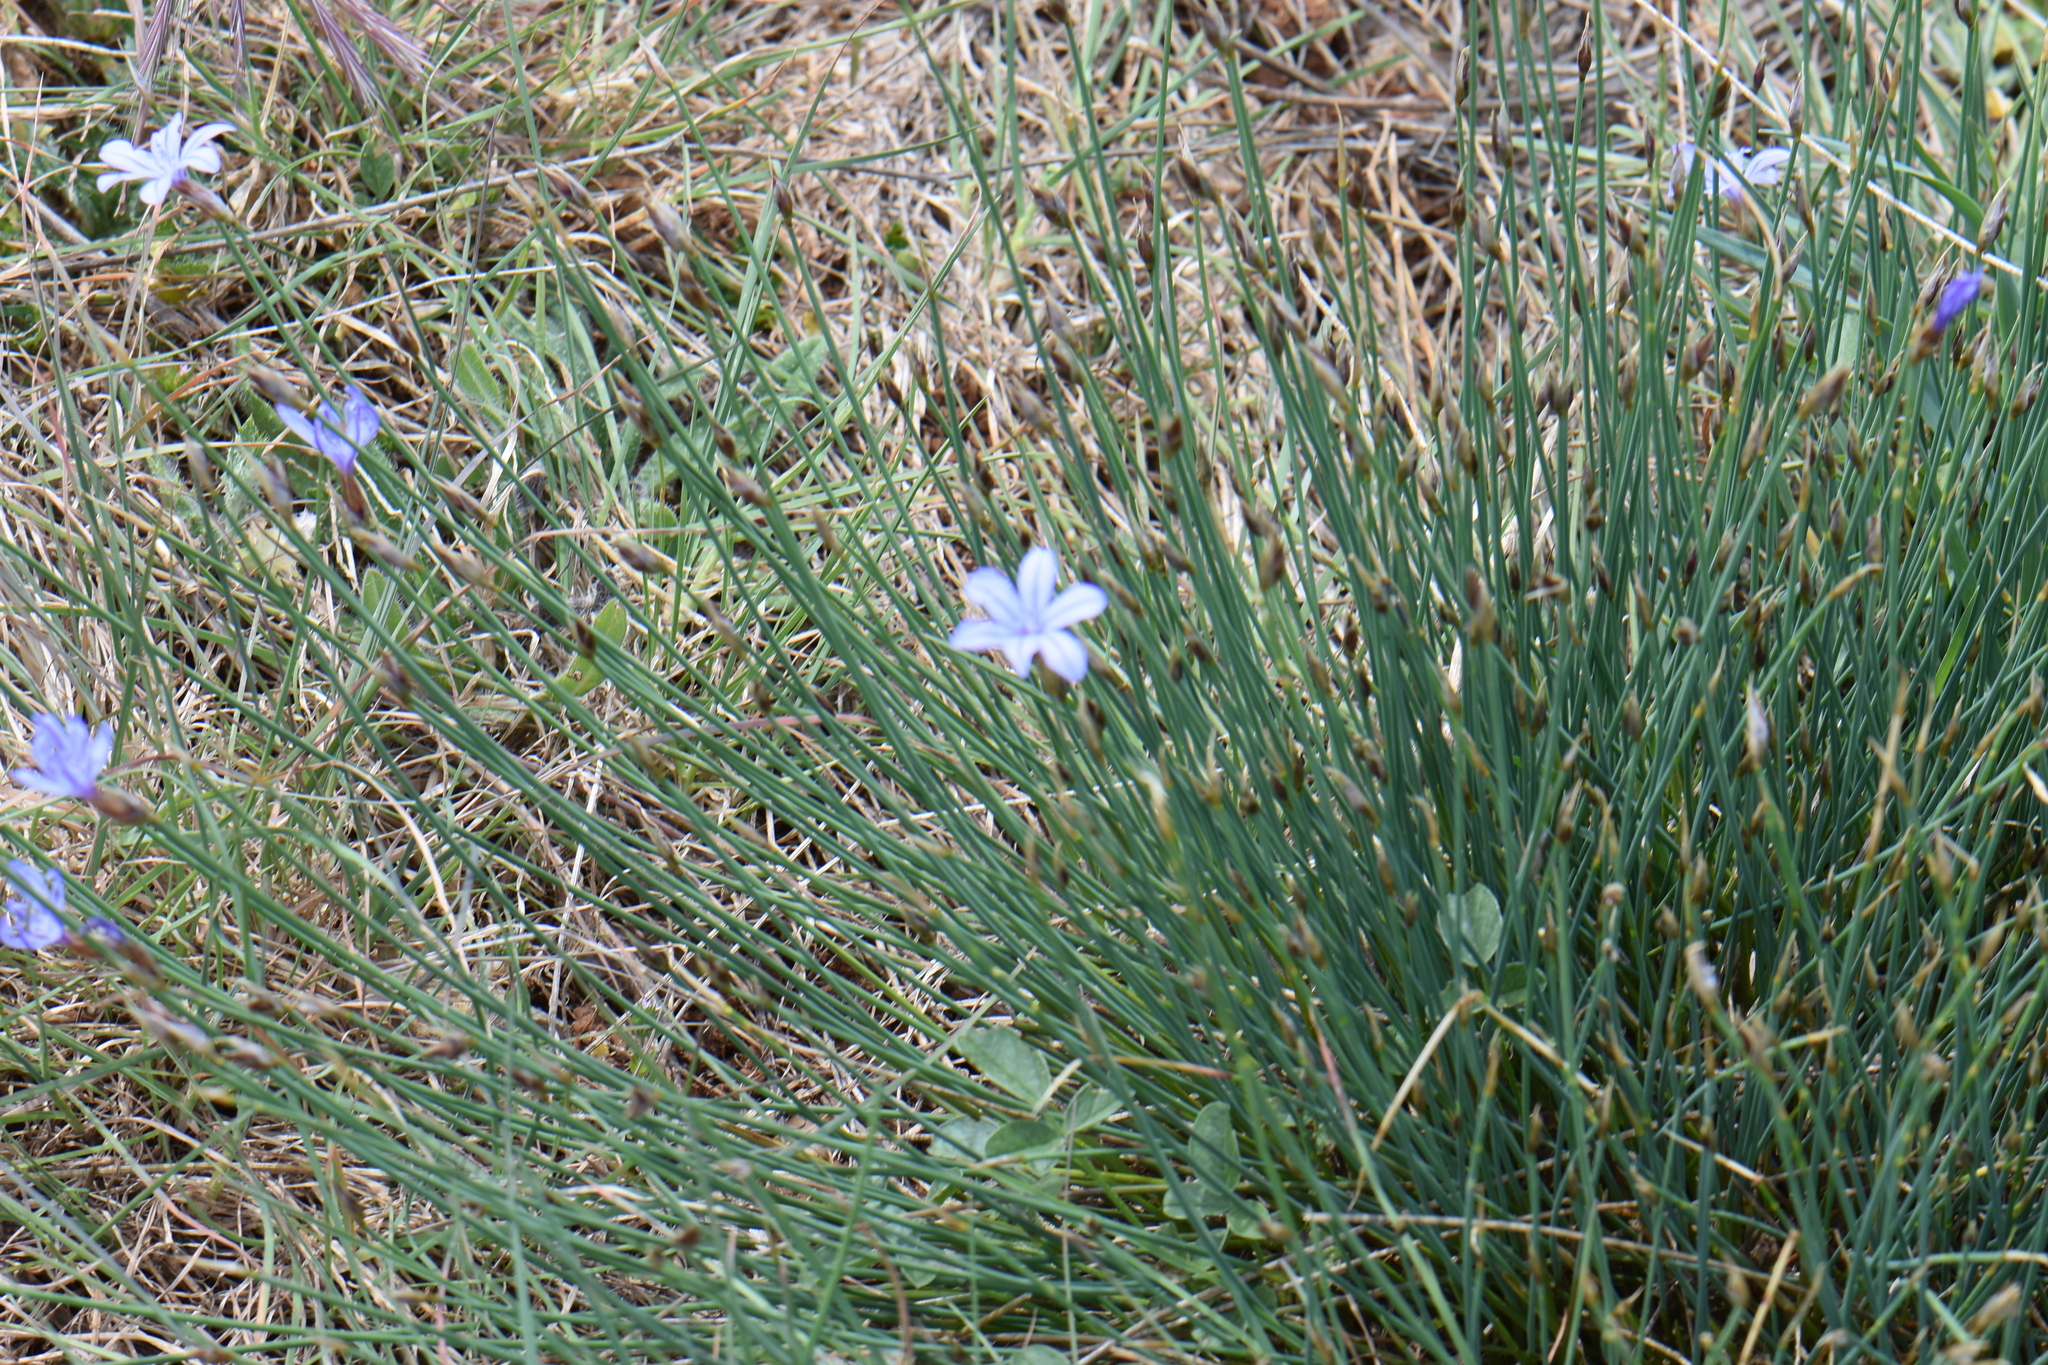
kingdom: Plantae
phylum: Tracheophyta
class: Liliopsida
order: Asparagales
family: Asparagaceae
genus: Aphyllanthes
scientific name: Aphyllanthes monspeliensis
